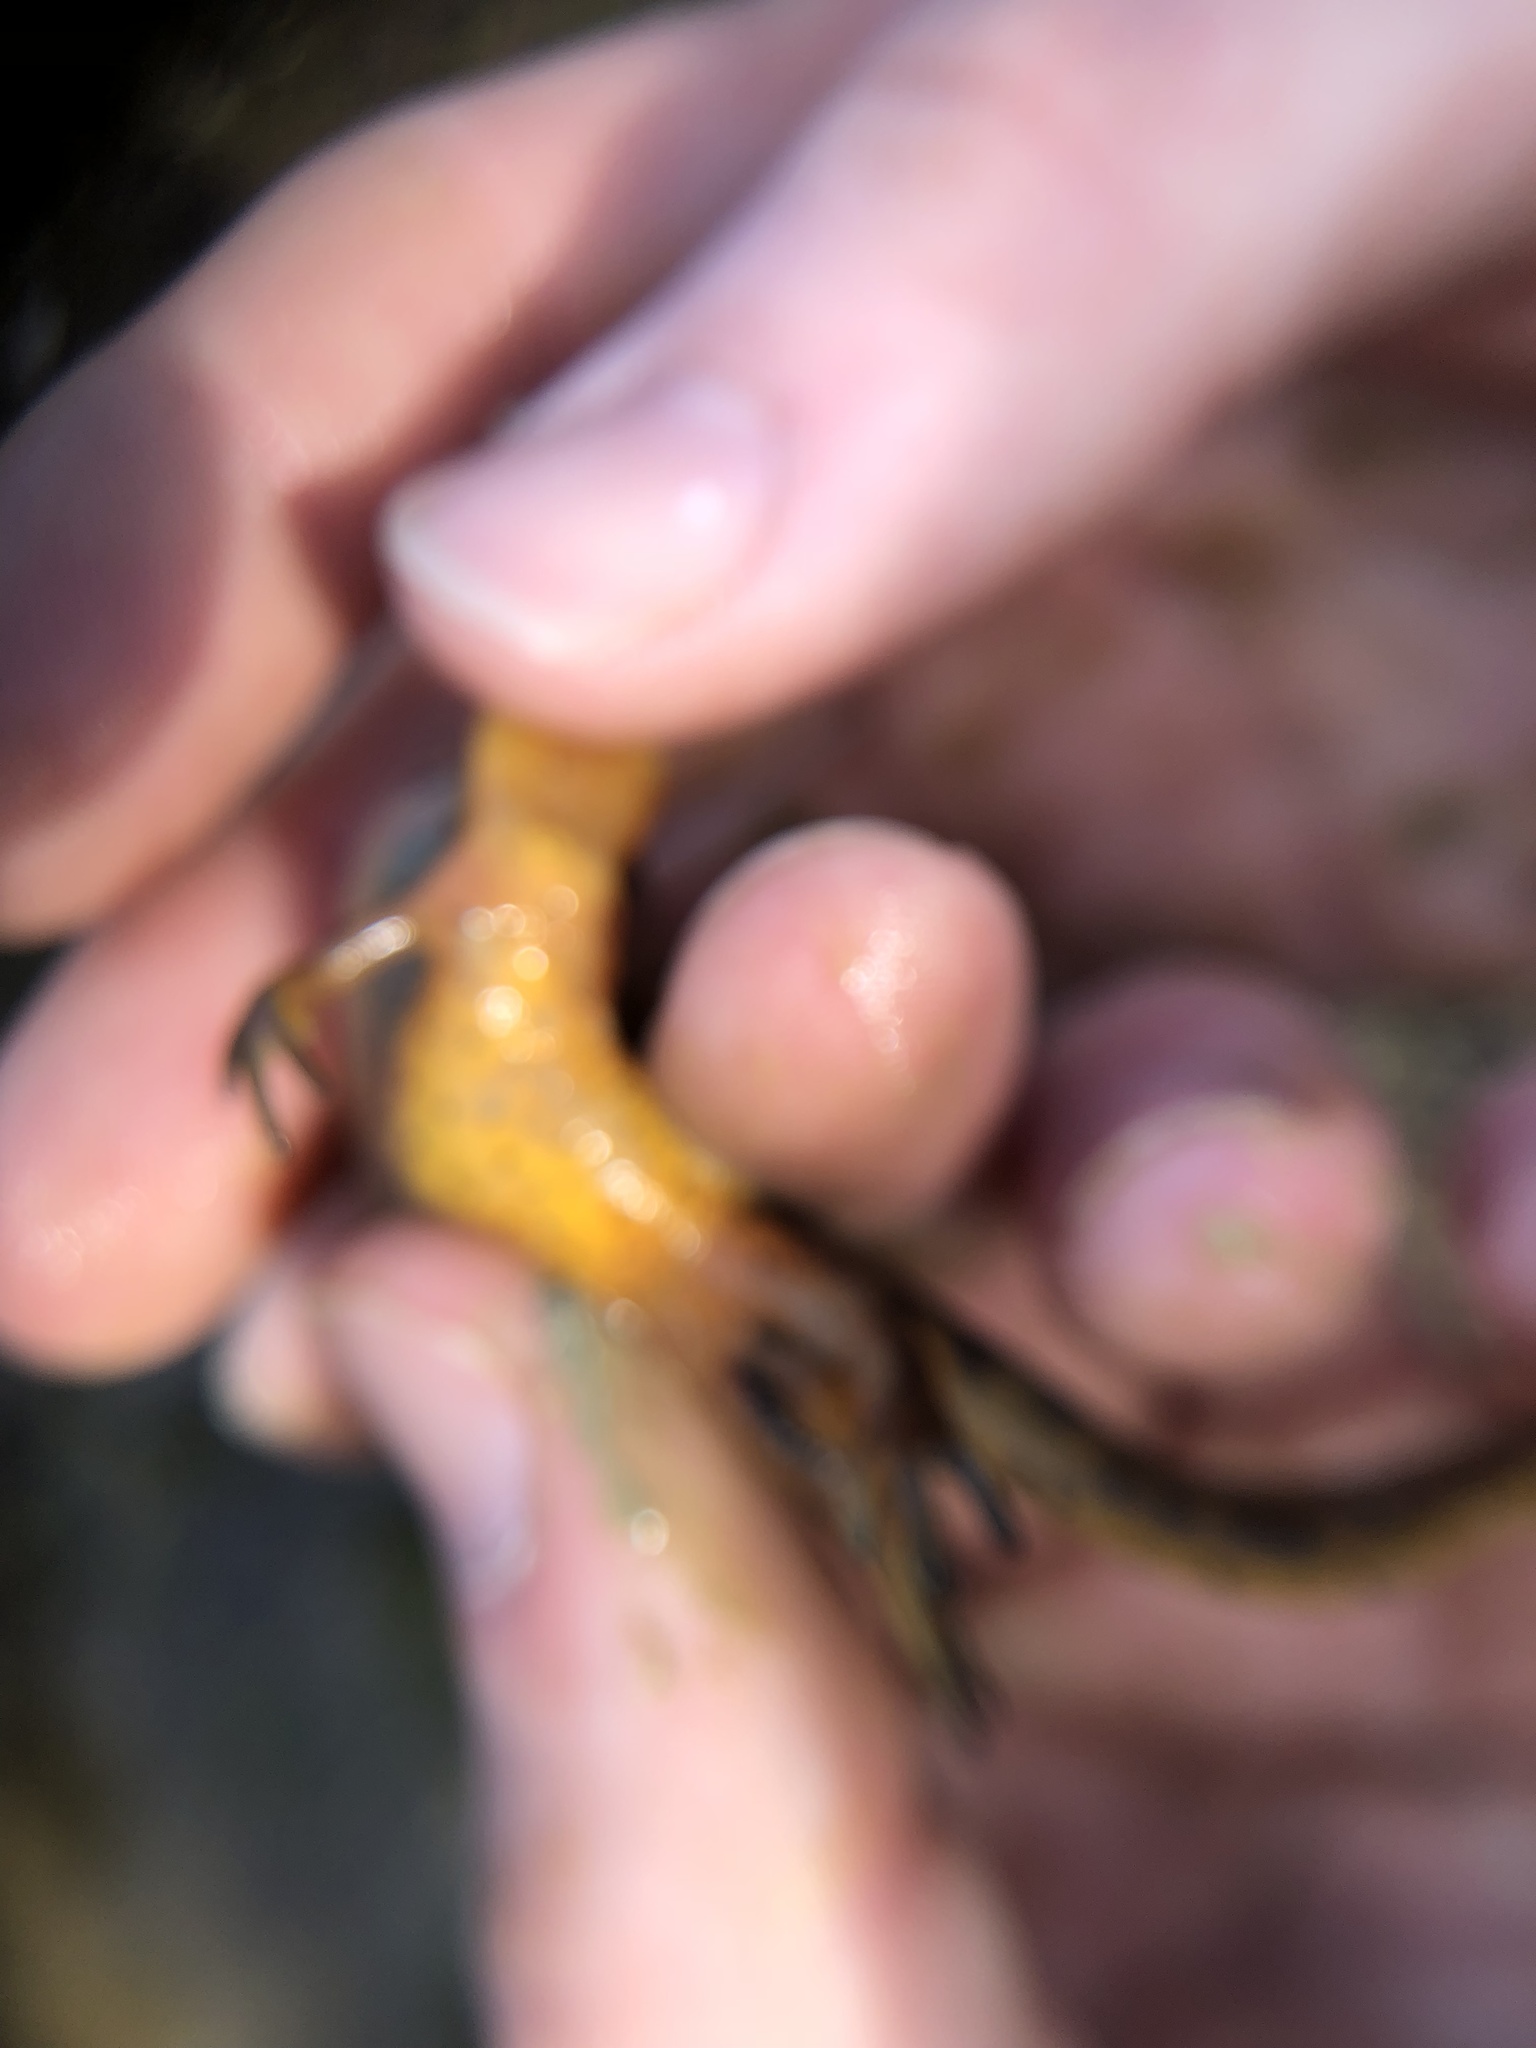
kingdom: Animalia
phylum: Chordata
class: Amphibia
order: Caudata
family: Salamandridae
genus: Notophthalmus
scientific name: Notophthalmus viridescens
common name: Eastern newt
